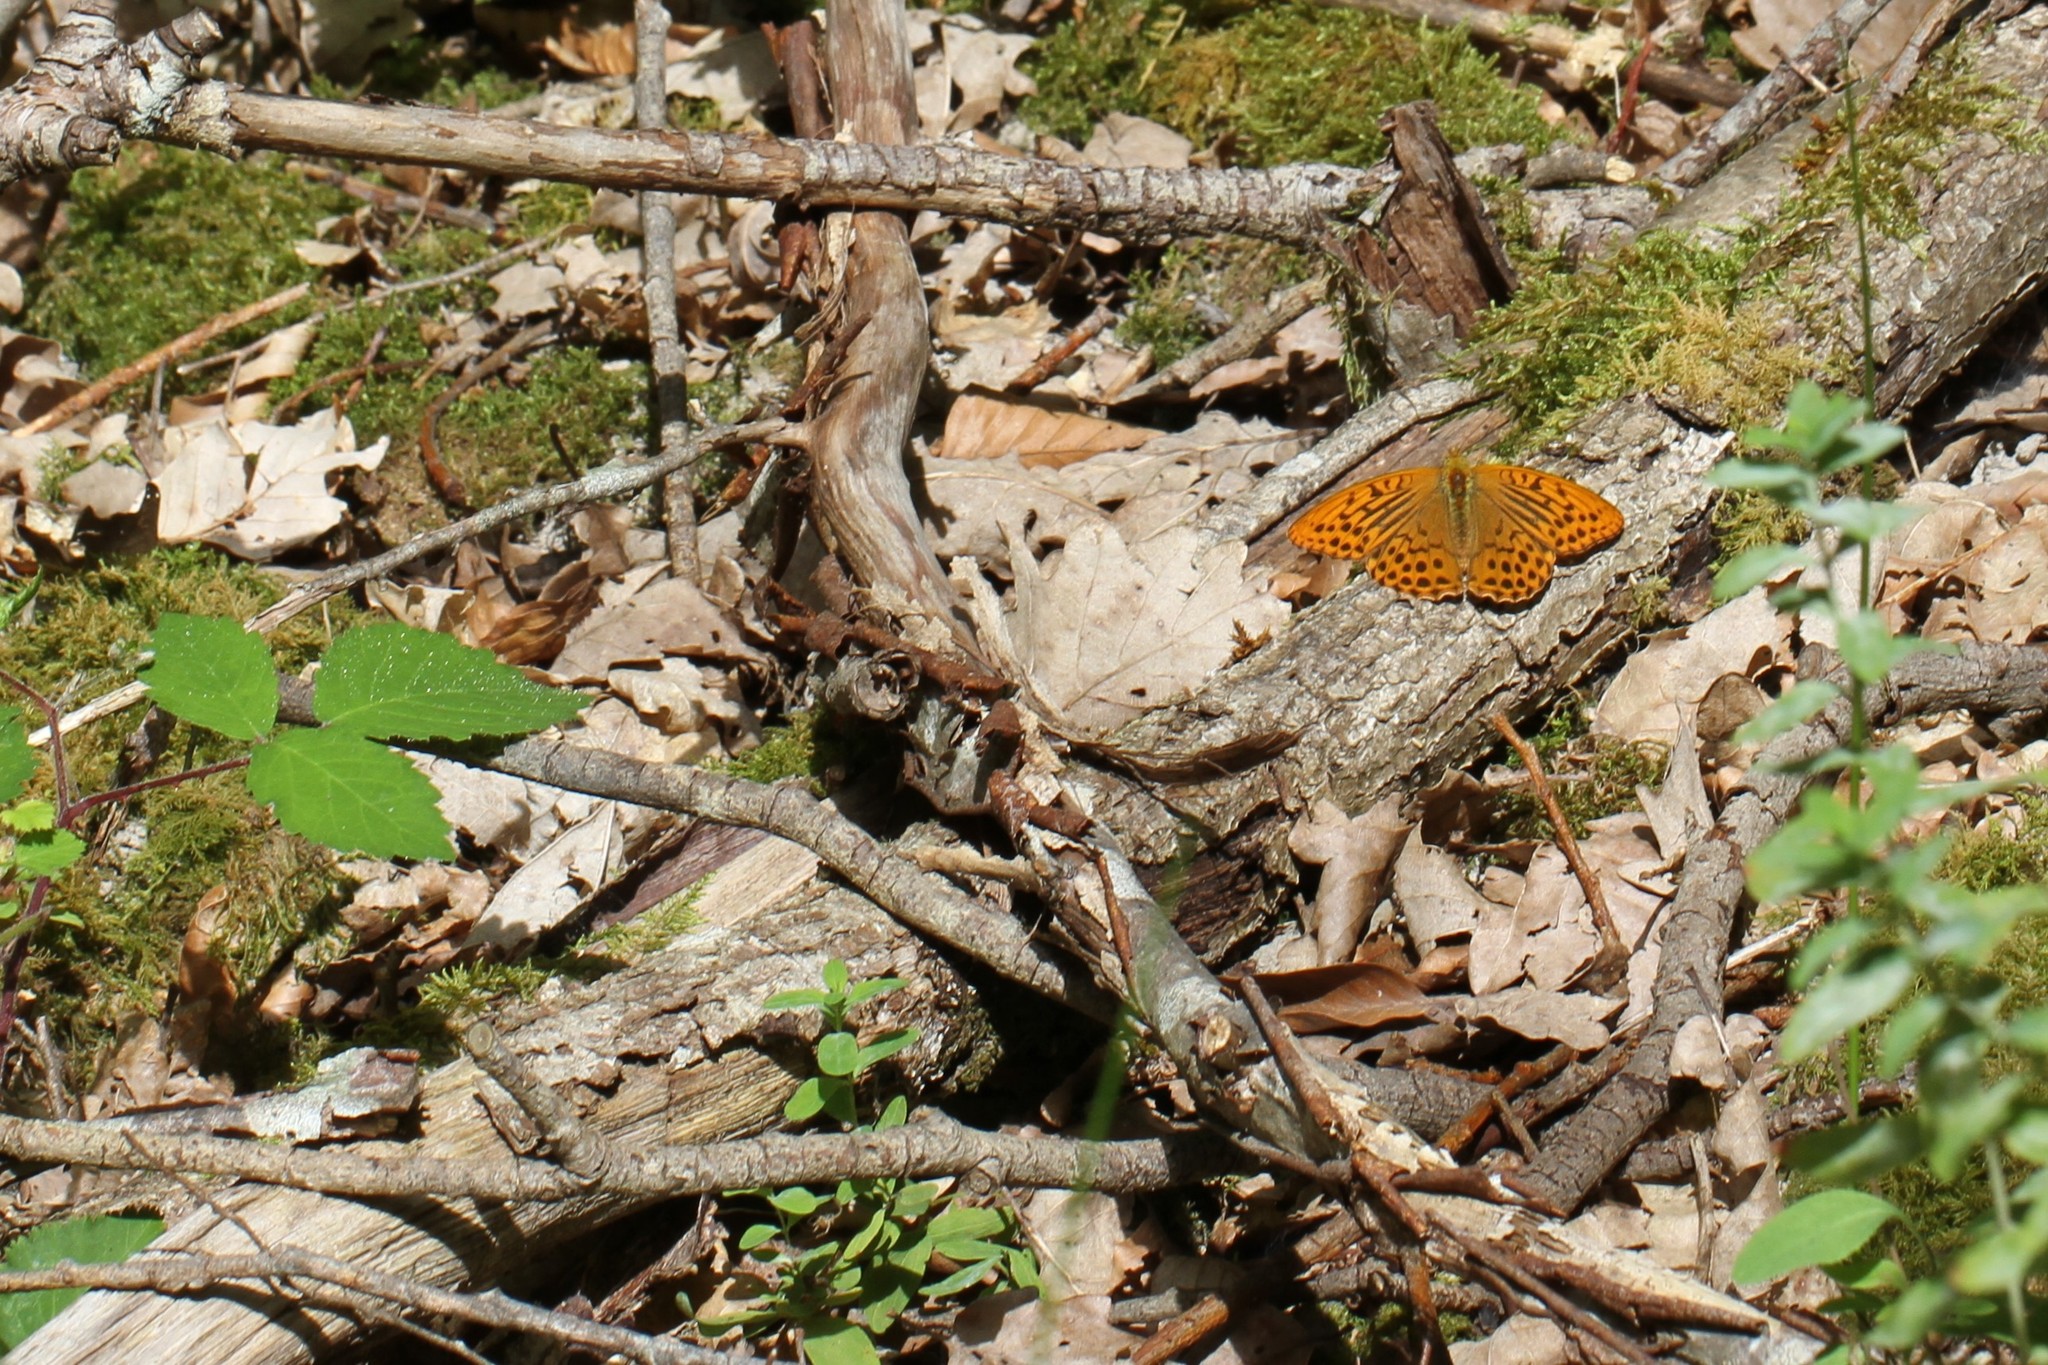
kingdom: Animalia
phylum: Arthropoda
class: Insecta
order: Lepidoptera
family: Nymphalidae
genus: Argynnis
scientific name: Argynnis paphia
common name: Silver-washed fritillary
